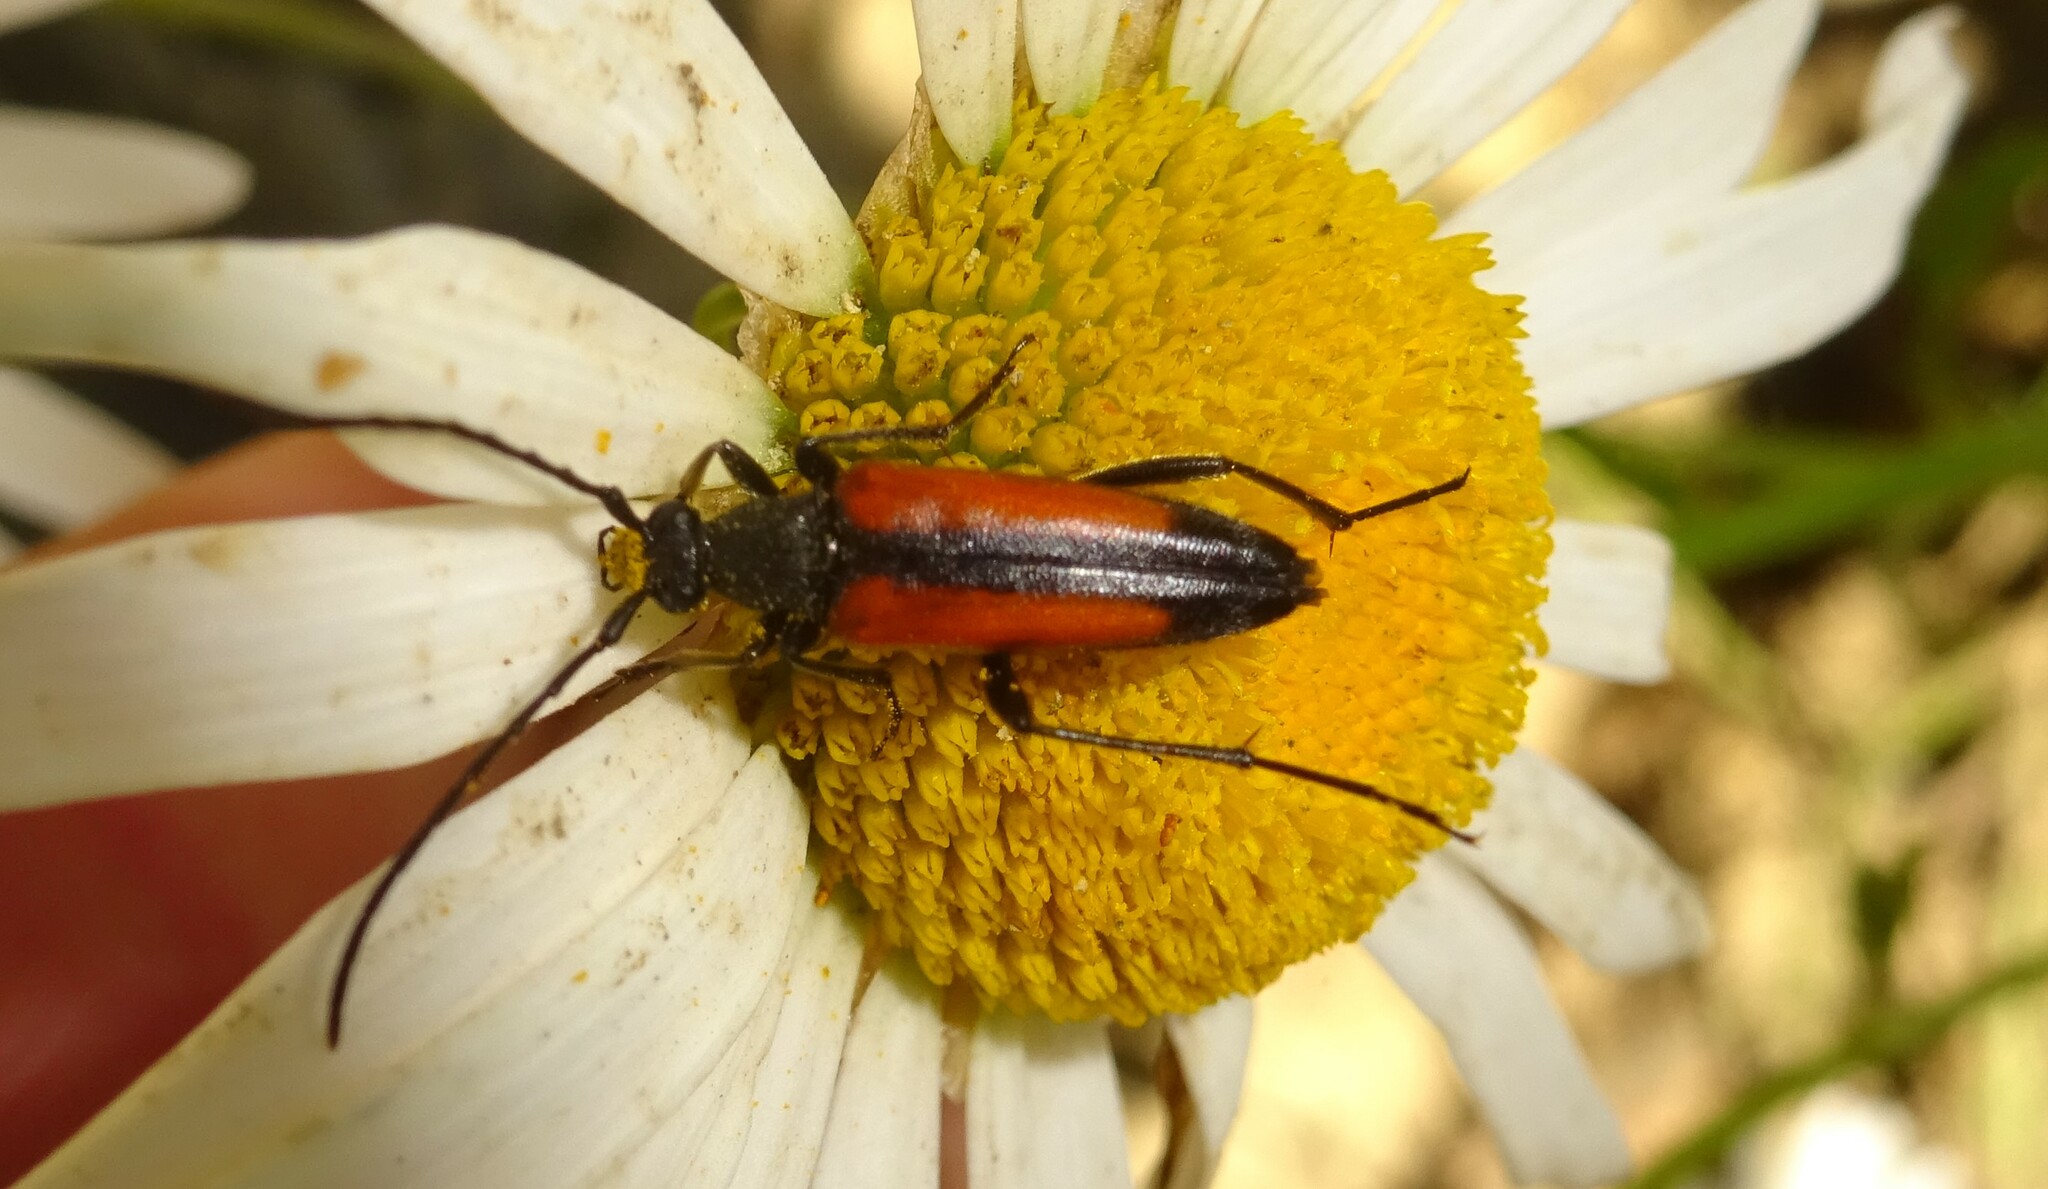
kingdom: Animalia
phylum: Arthropoda
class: Insecta
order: Coleoptera
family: Cerambycidae
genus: Stenurella
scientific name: Stenurella melanura
